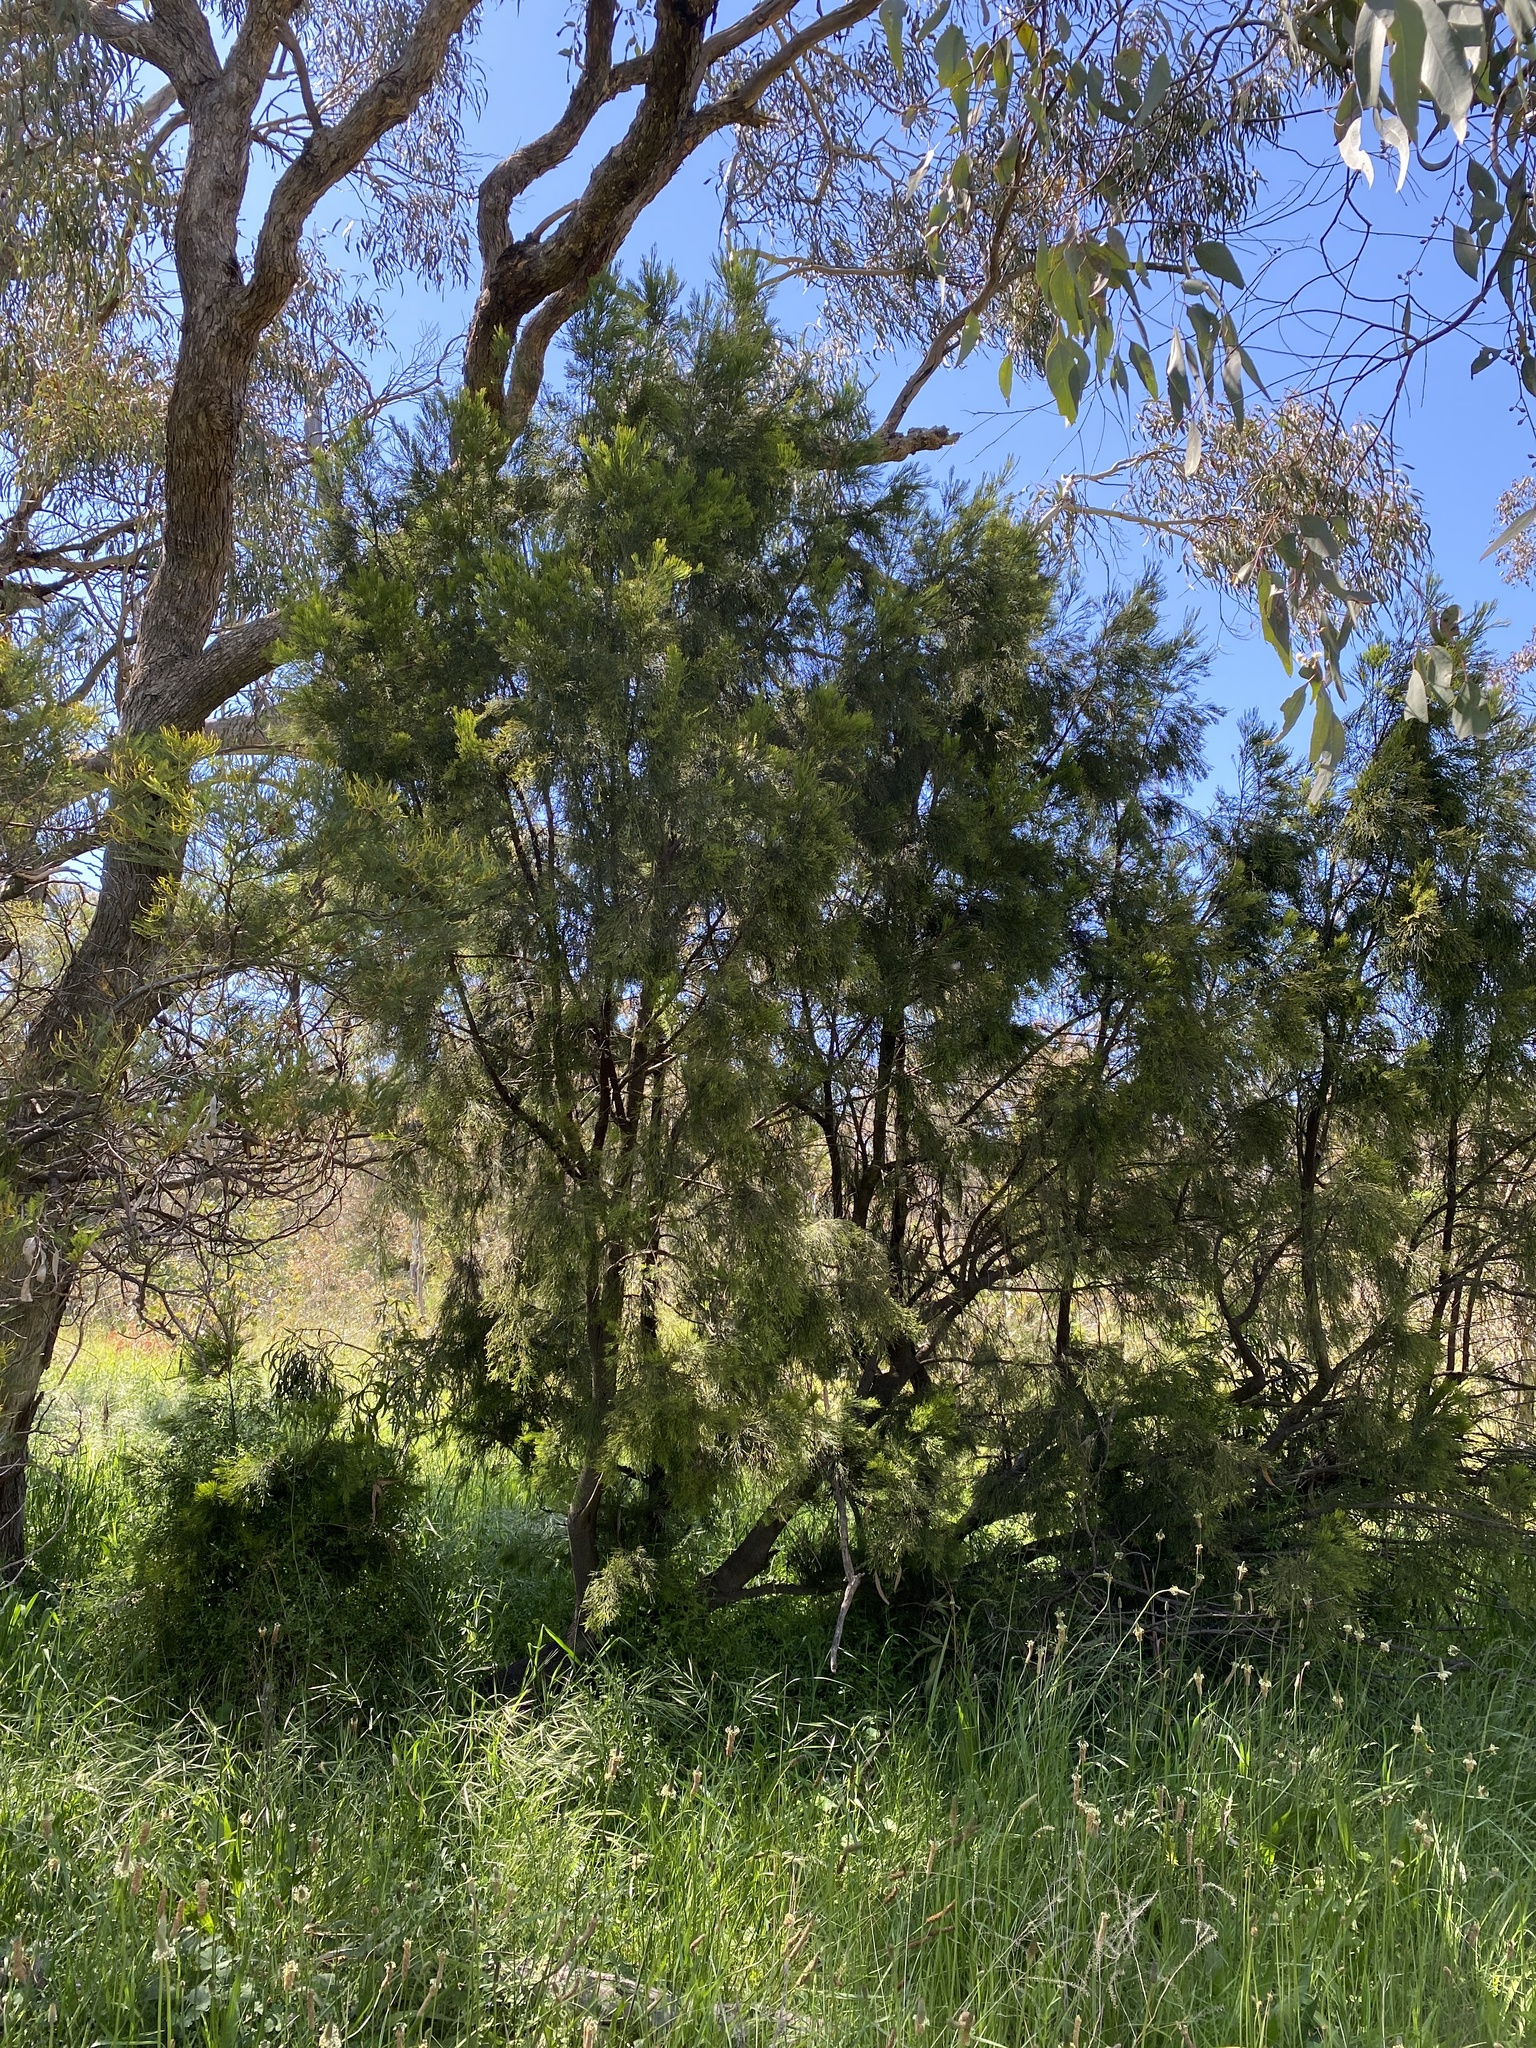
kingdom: Plantae
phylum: Tracheophyta
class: Magnoliopsida
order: Santalales
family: Santalaceae
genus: Exocarpos
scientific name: Exocarpos cupressiformis
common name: Cherry ballart
